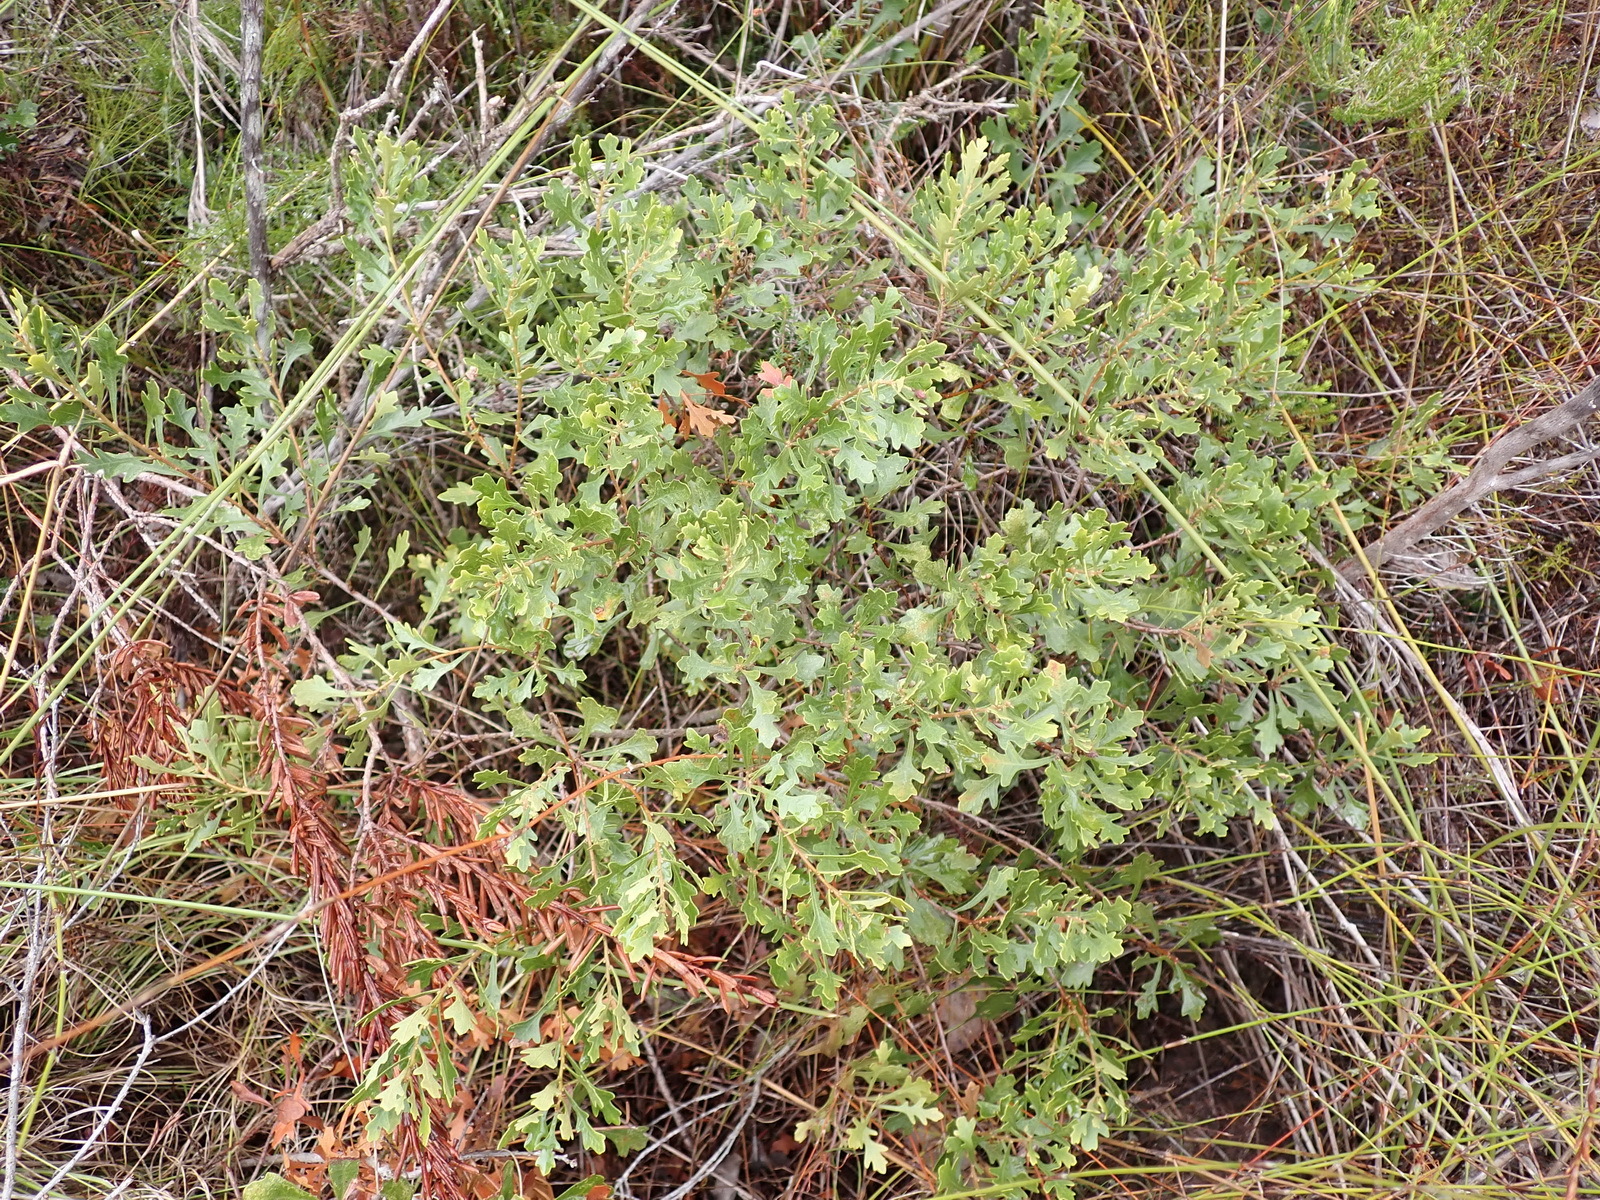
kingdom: Plantae
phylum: Tracheophyta
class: Magnoliopsida
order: Fagales
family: Myricaceae
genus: Morella
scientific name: Morella quercifolia
